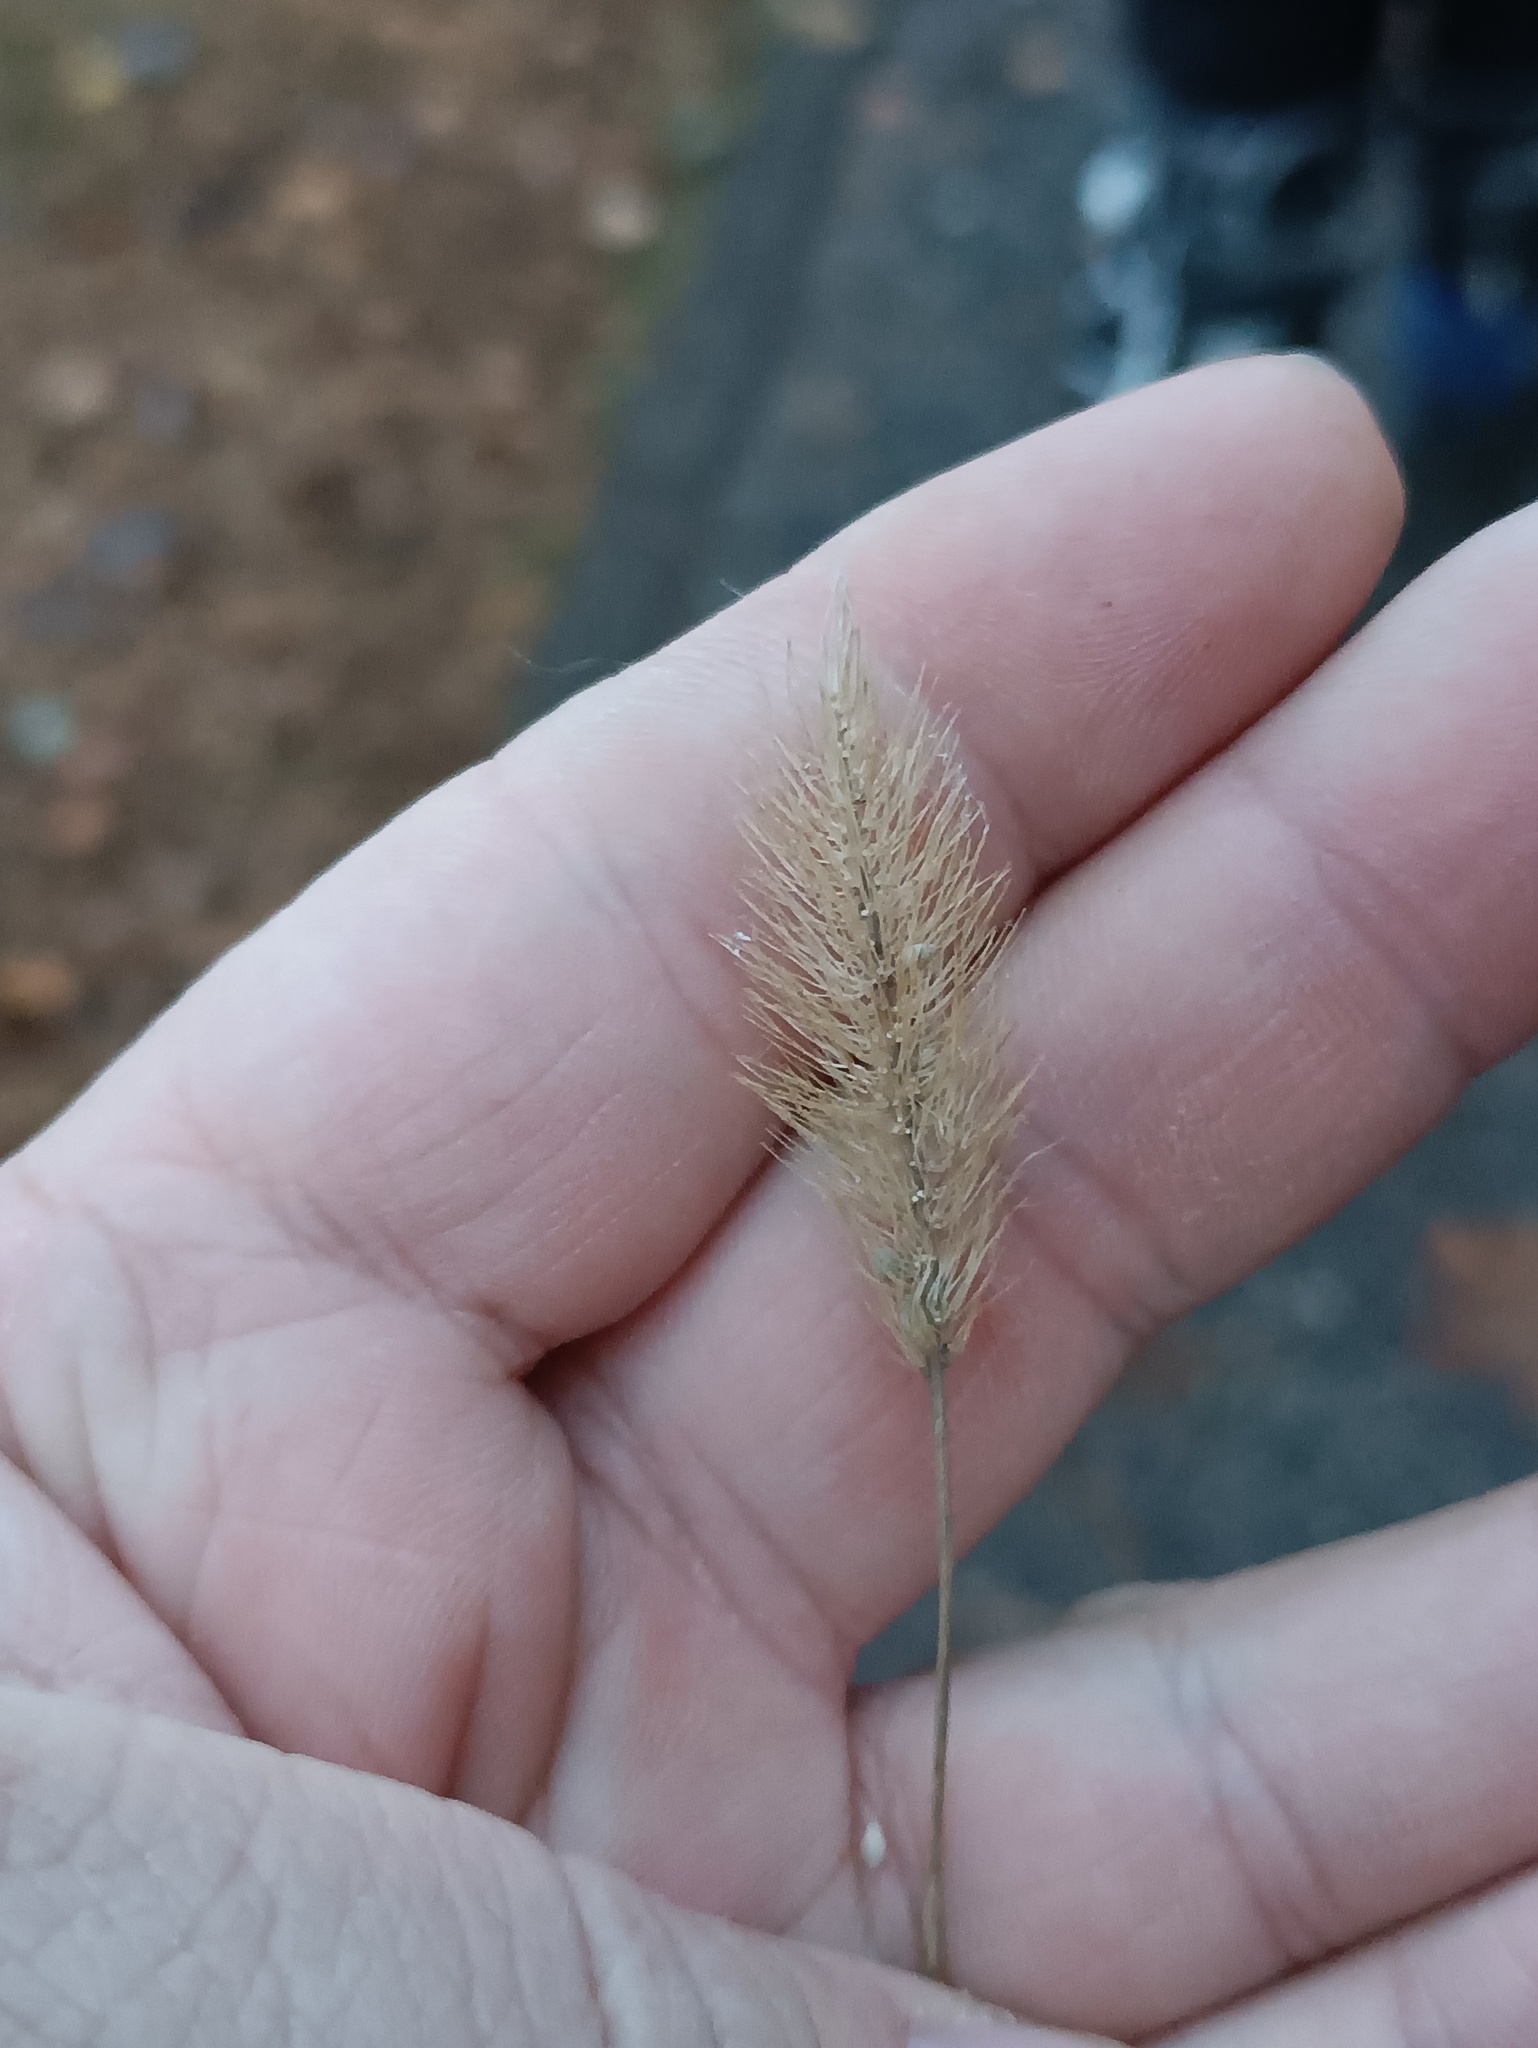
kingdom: Plantae
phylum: Tracheophyta
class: Liliopsida
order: Poales
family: Poaceae
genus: Setaria
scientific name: Setaria viridis
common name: Green bristlegrass
